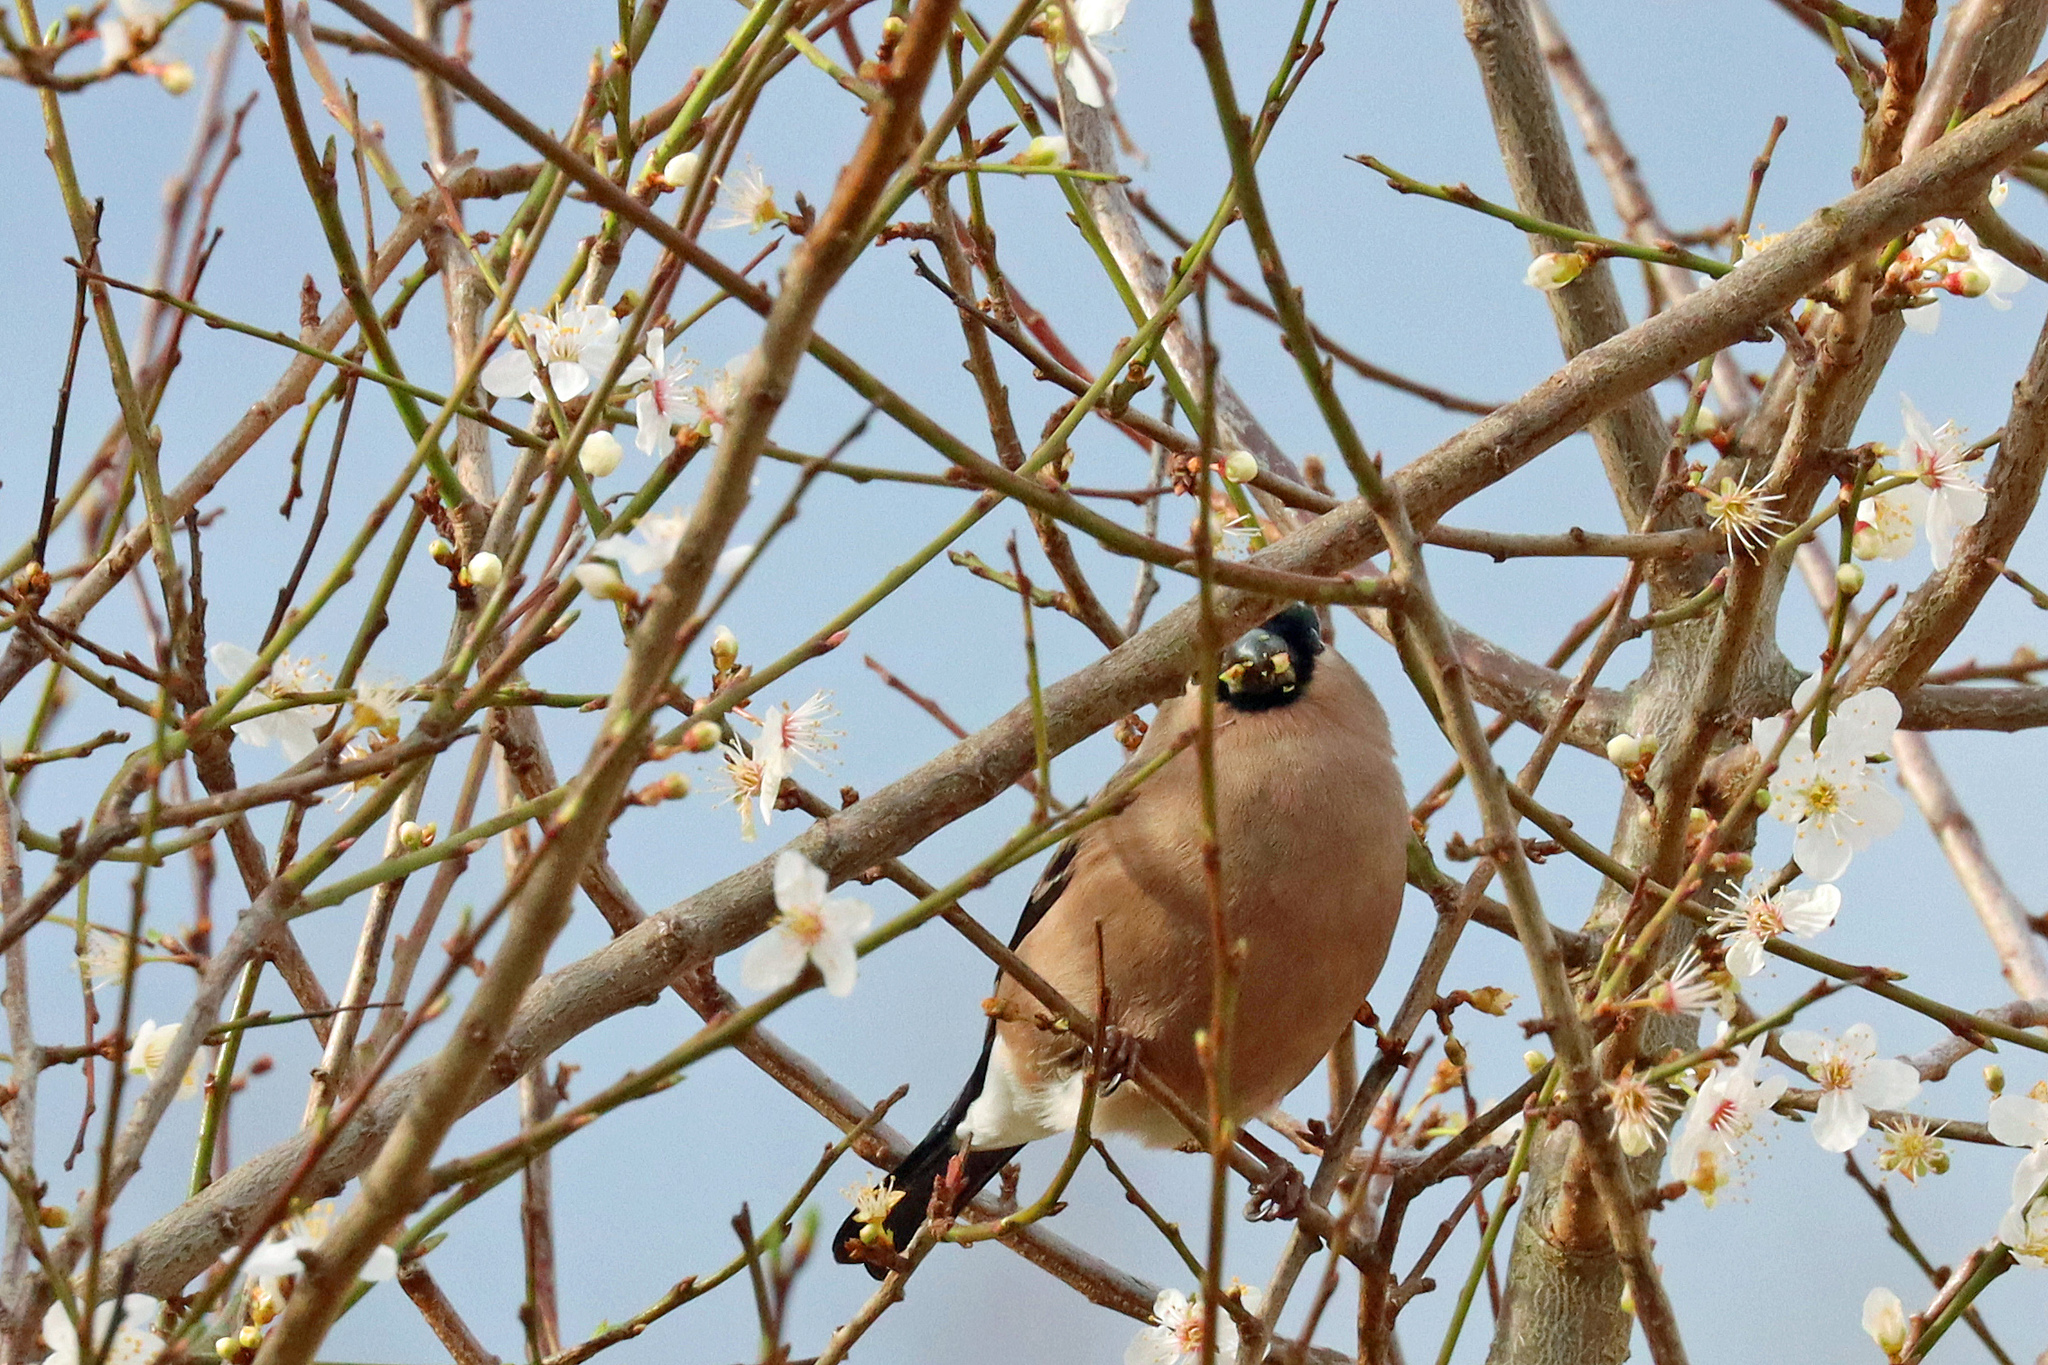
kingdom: Animalia
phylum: Chordata
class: Aves
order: Passeriformes
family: Fringillidae
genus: Pyrrhula
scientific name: Pyrrhula pyrrhula
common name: Eurasian bullfinch
